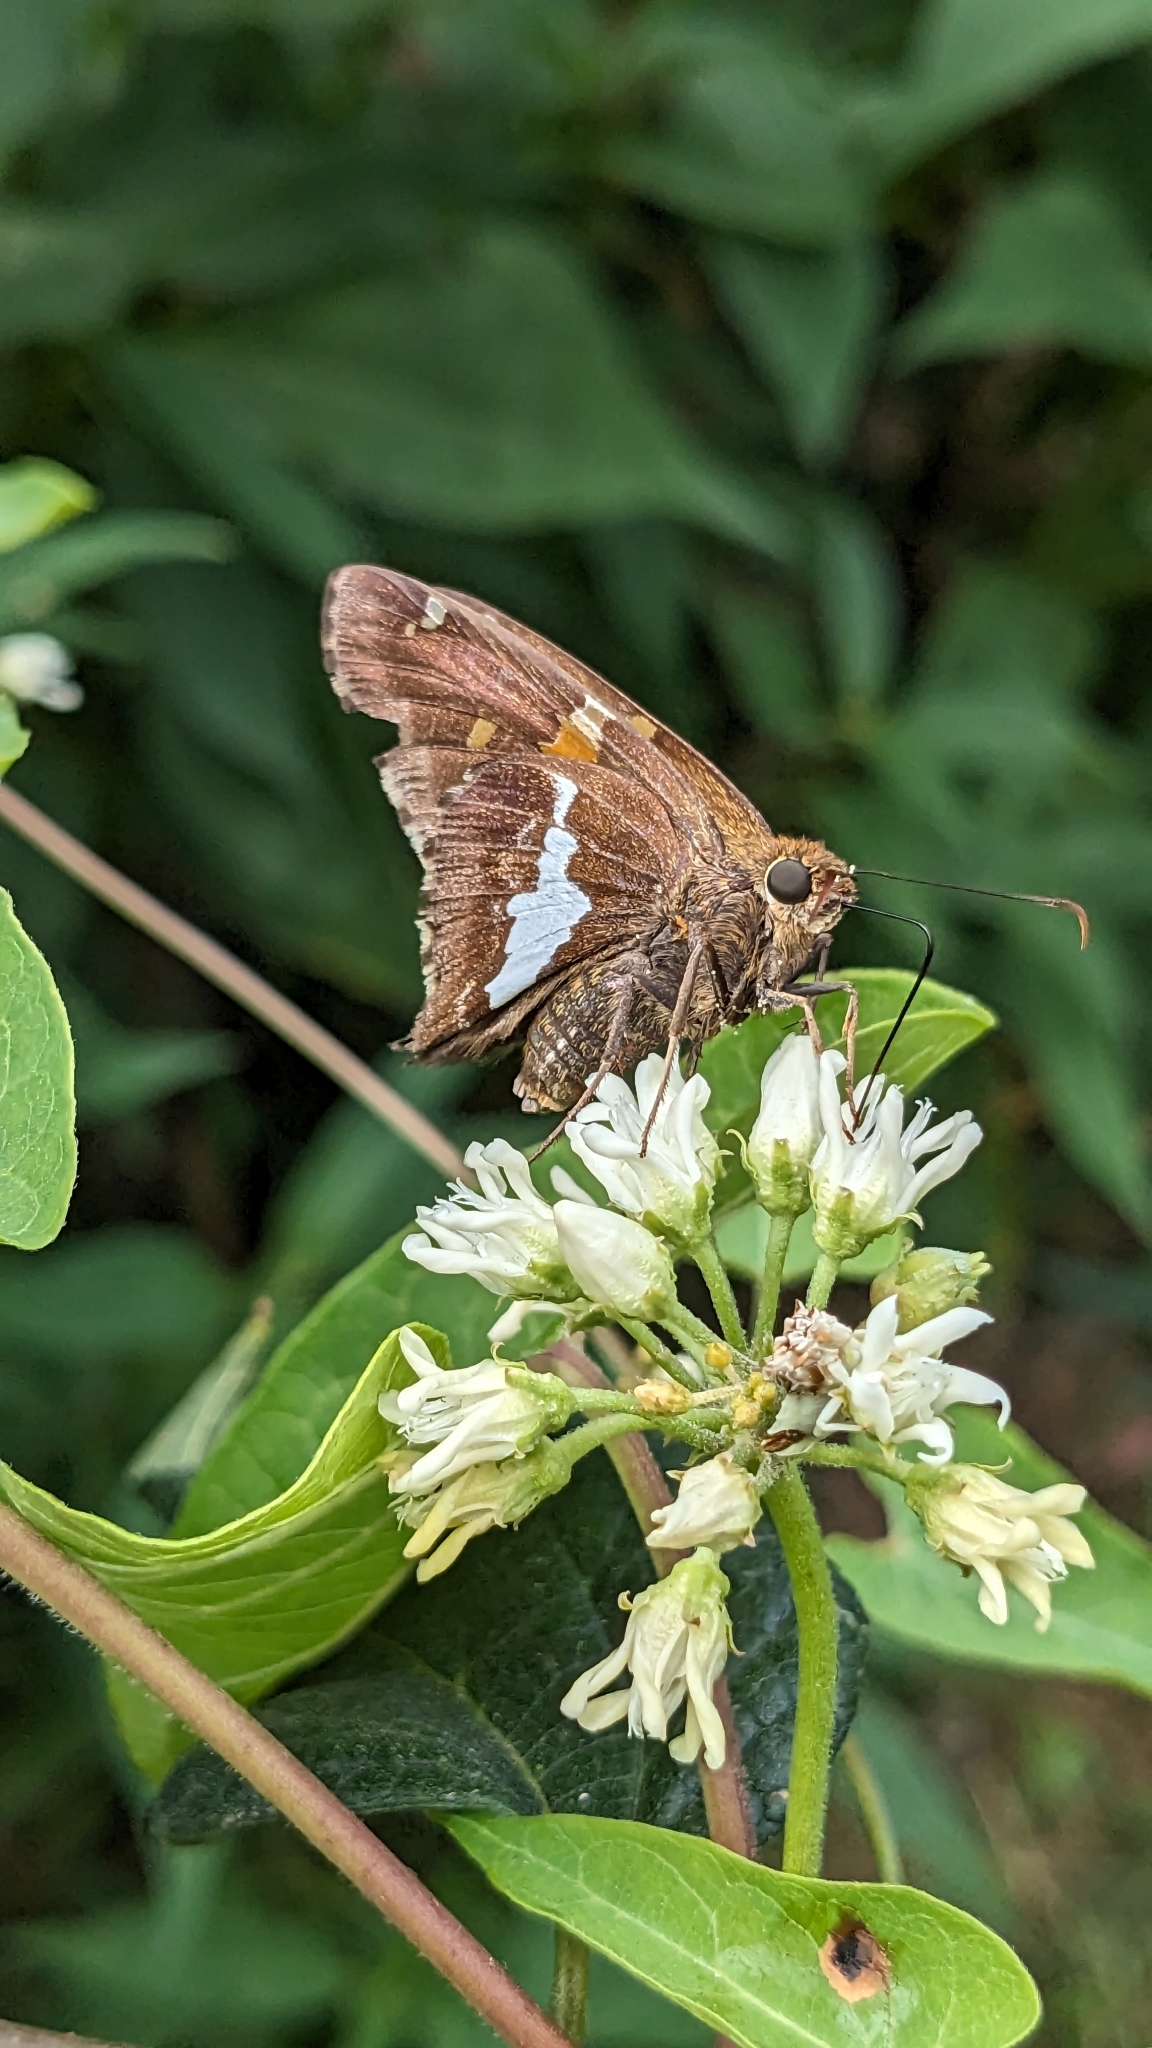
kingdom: Animalia
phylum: Arthropoda
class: Insecta
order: Lepidoptera
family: Hesperiidae
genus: Epargyreus
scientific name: Epargyreus clarus
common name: Silver-spotted skipper
